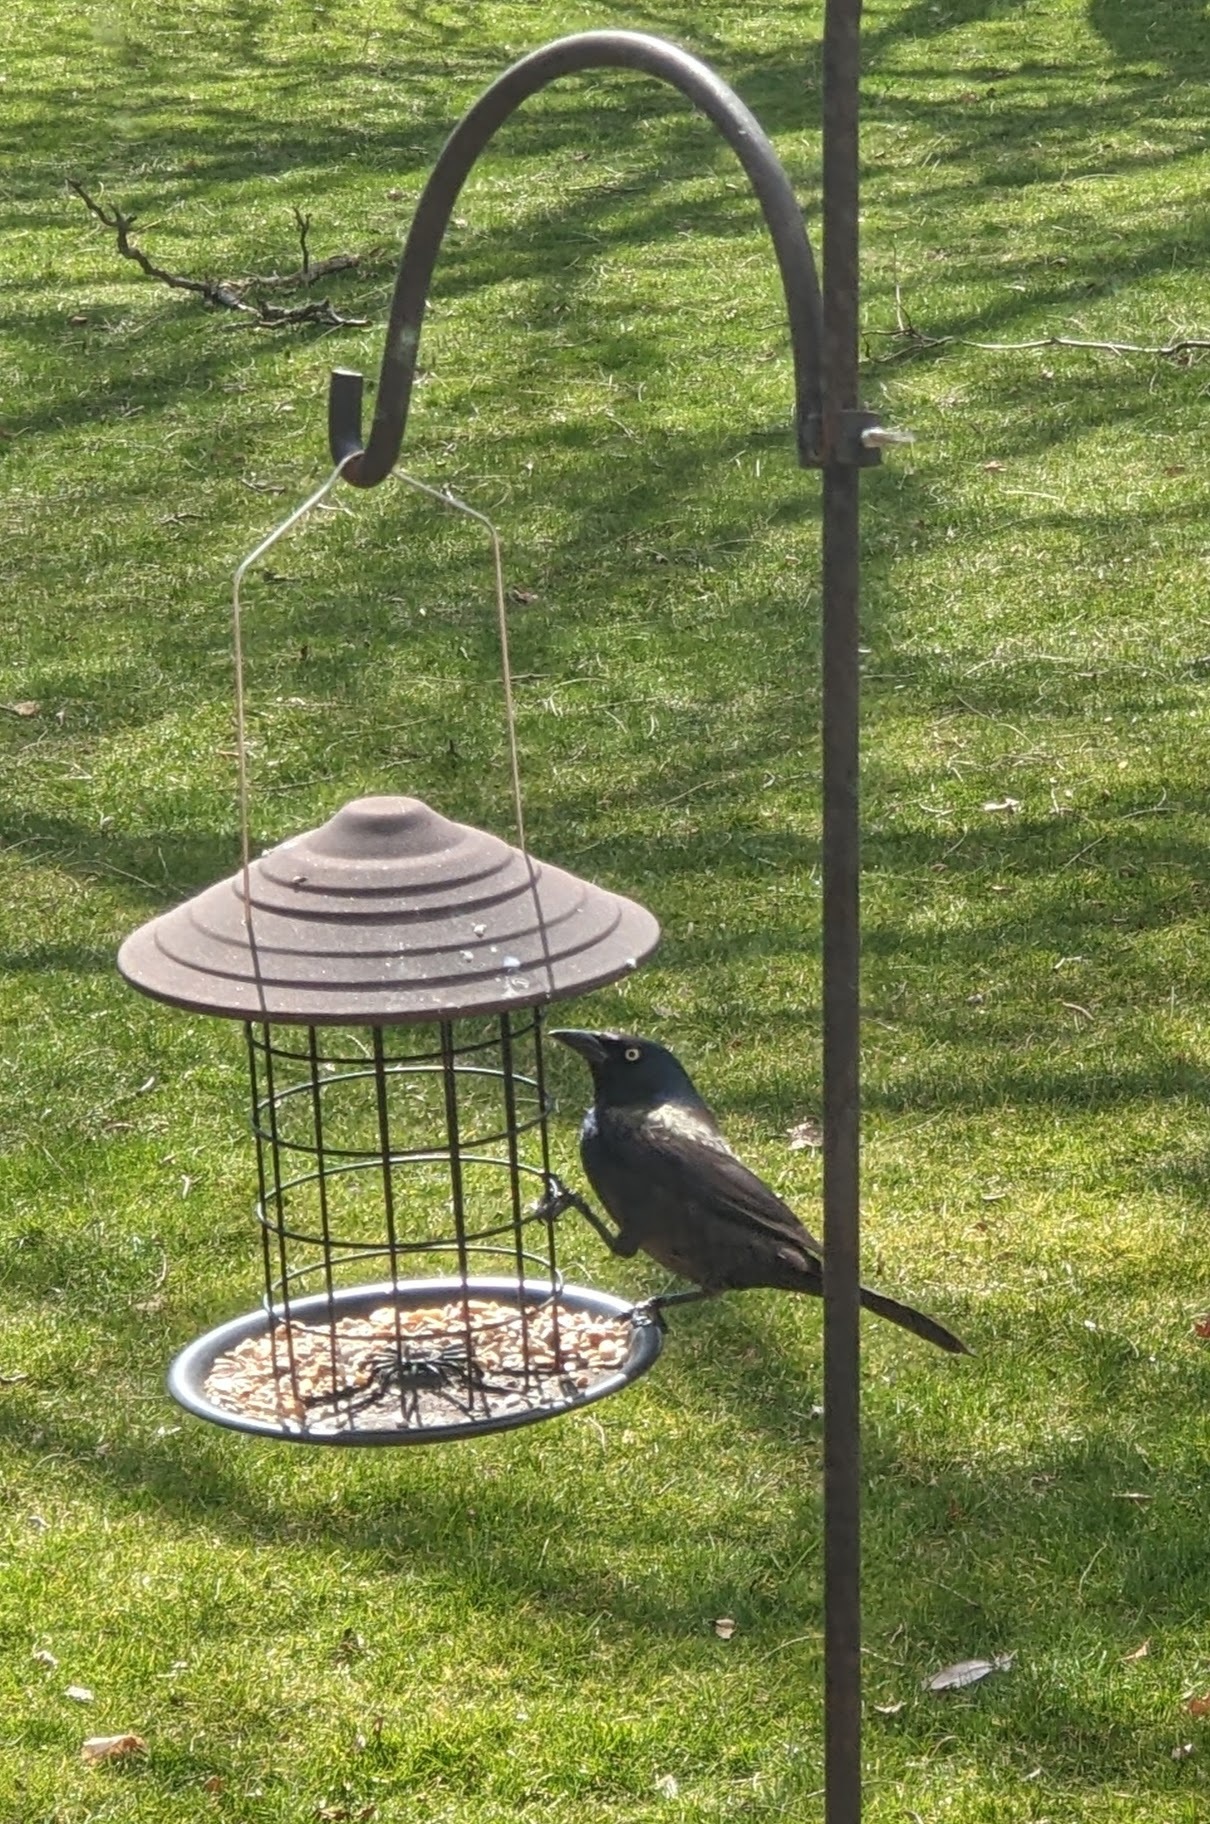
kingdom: Animalia
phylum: Chordata
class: Aves
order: Passeriformes
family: Icteridae
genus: Quiscalus
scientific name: Quiscalus quiscula
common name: Common grackle
